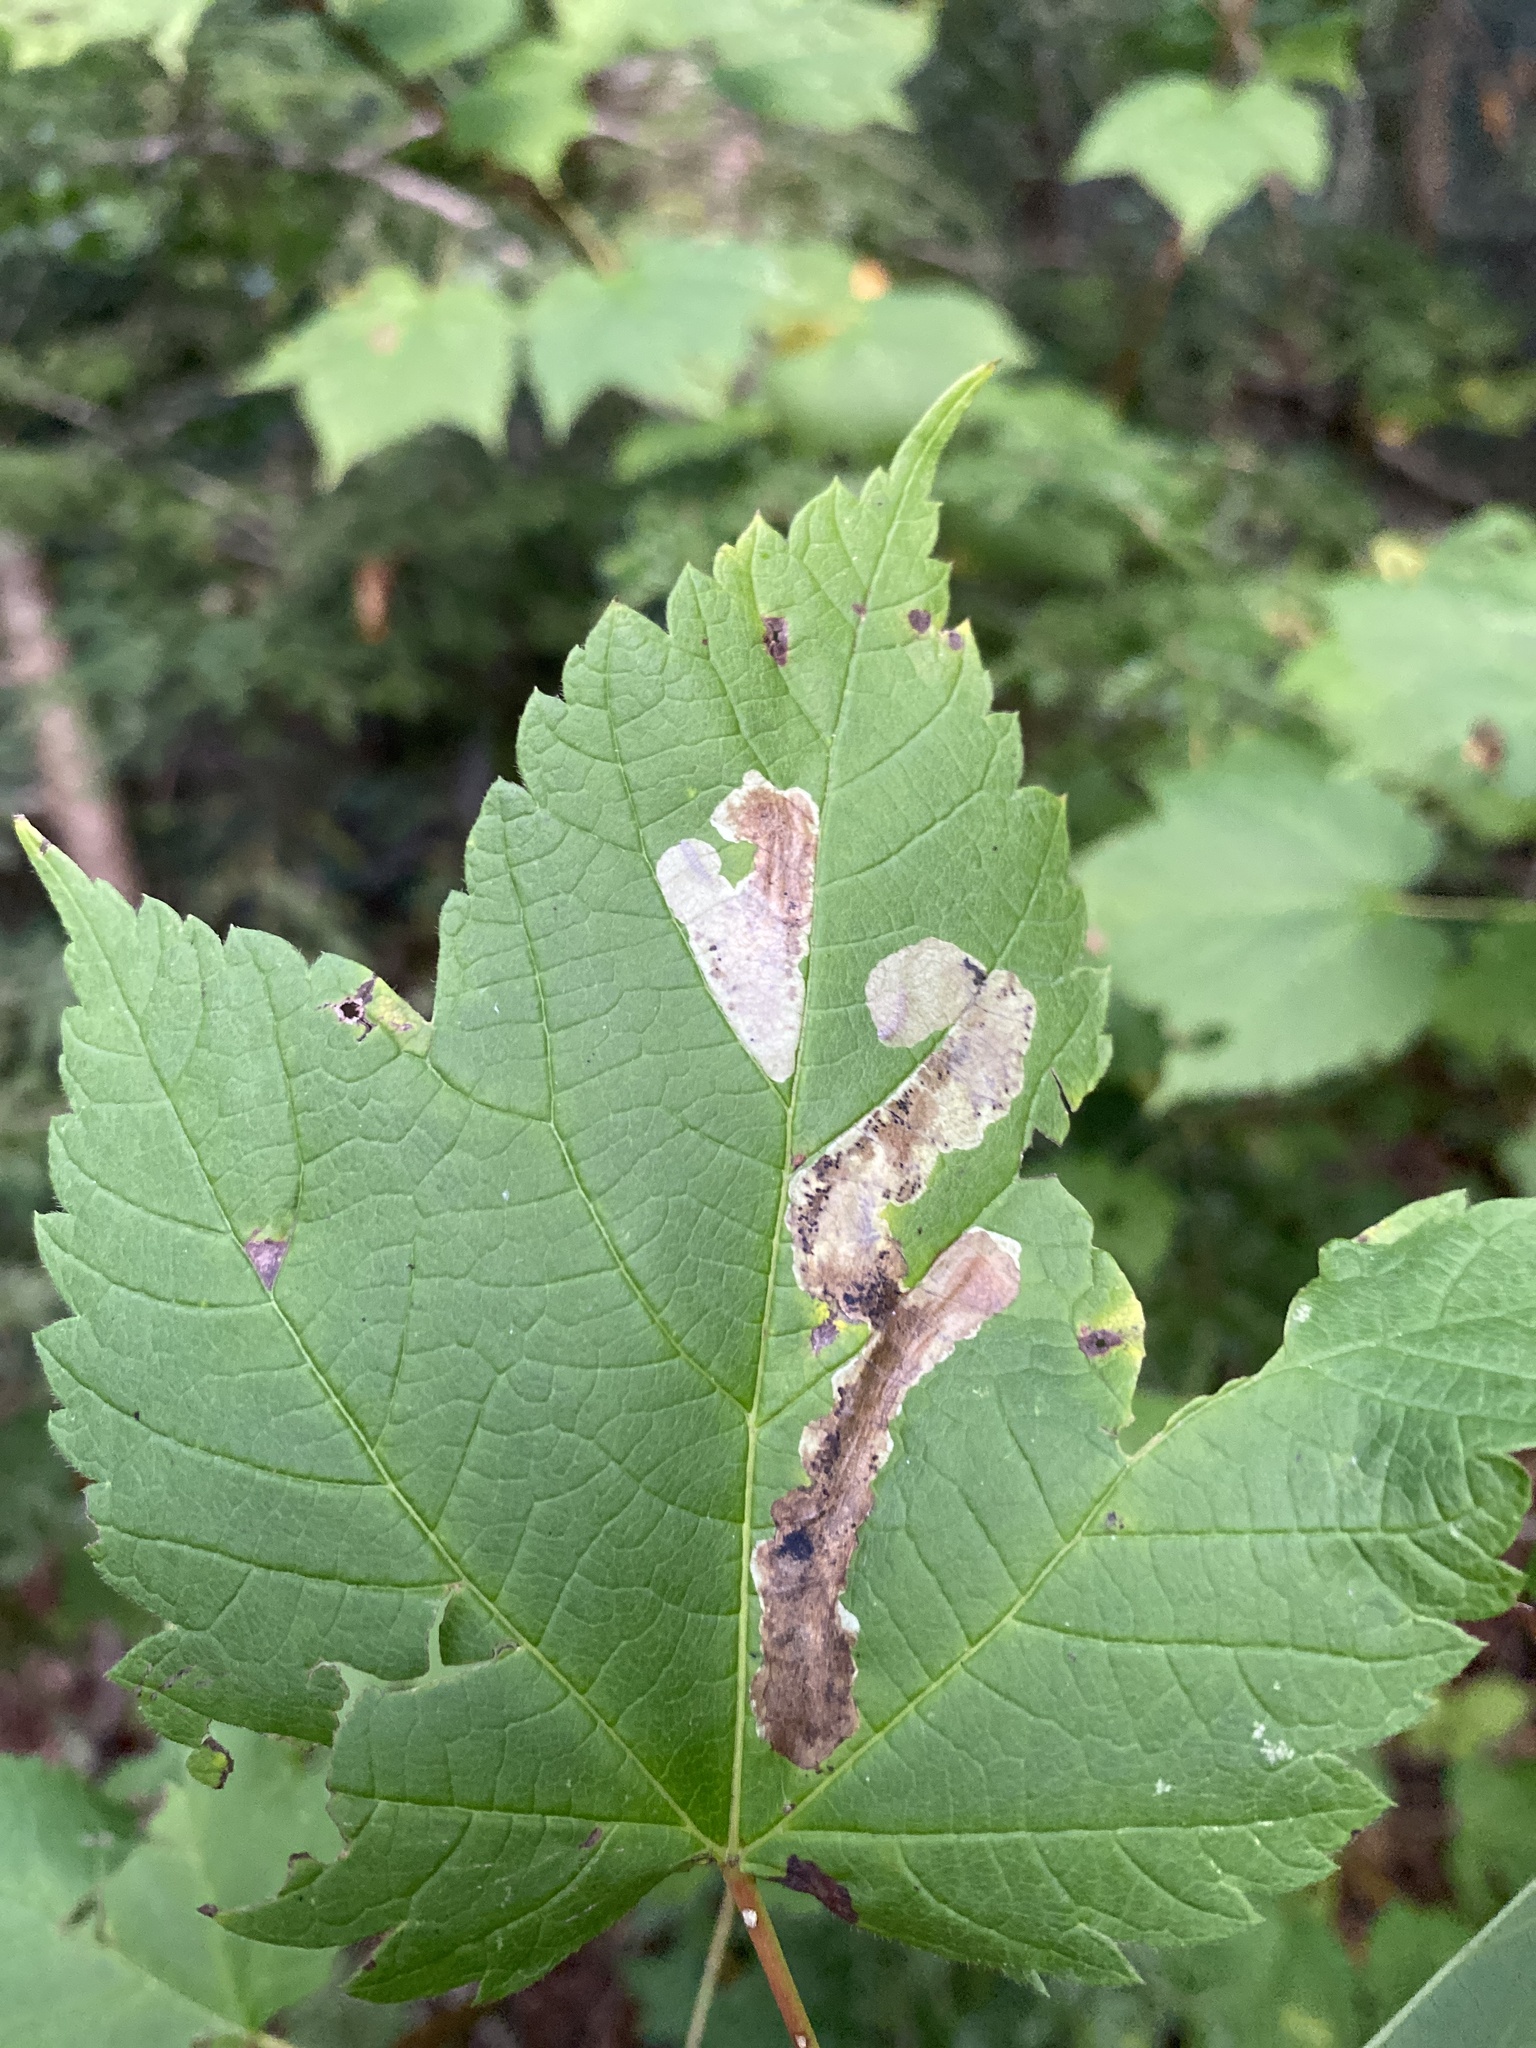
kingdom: Animalia
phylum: Arthropoda
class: Insecta
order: Lepidoptera
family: Gracillariidae
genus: Cameraria
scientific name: Cameraria aceriella
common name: Maple leafblotch miner
